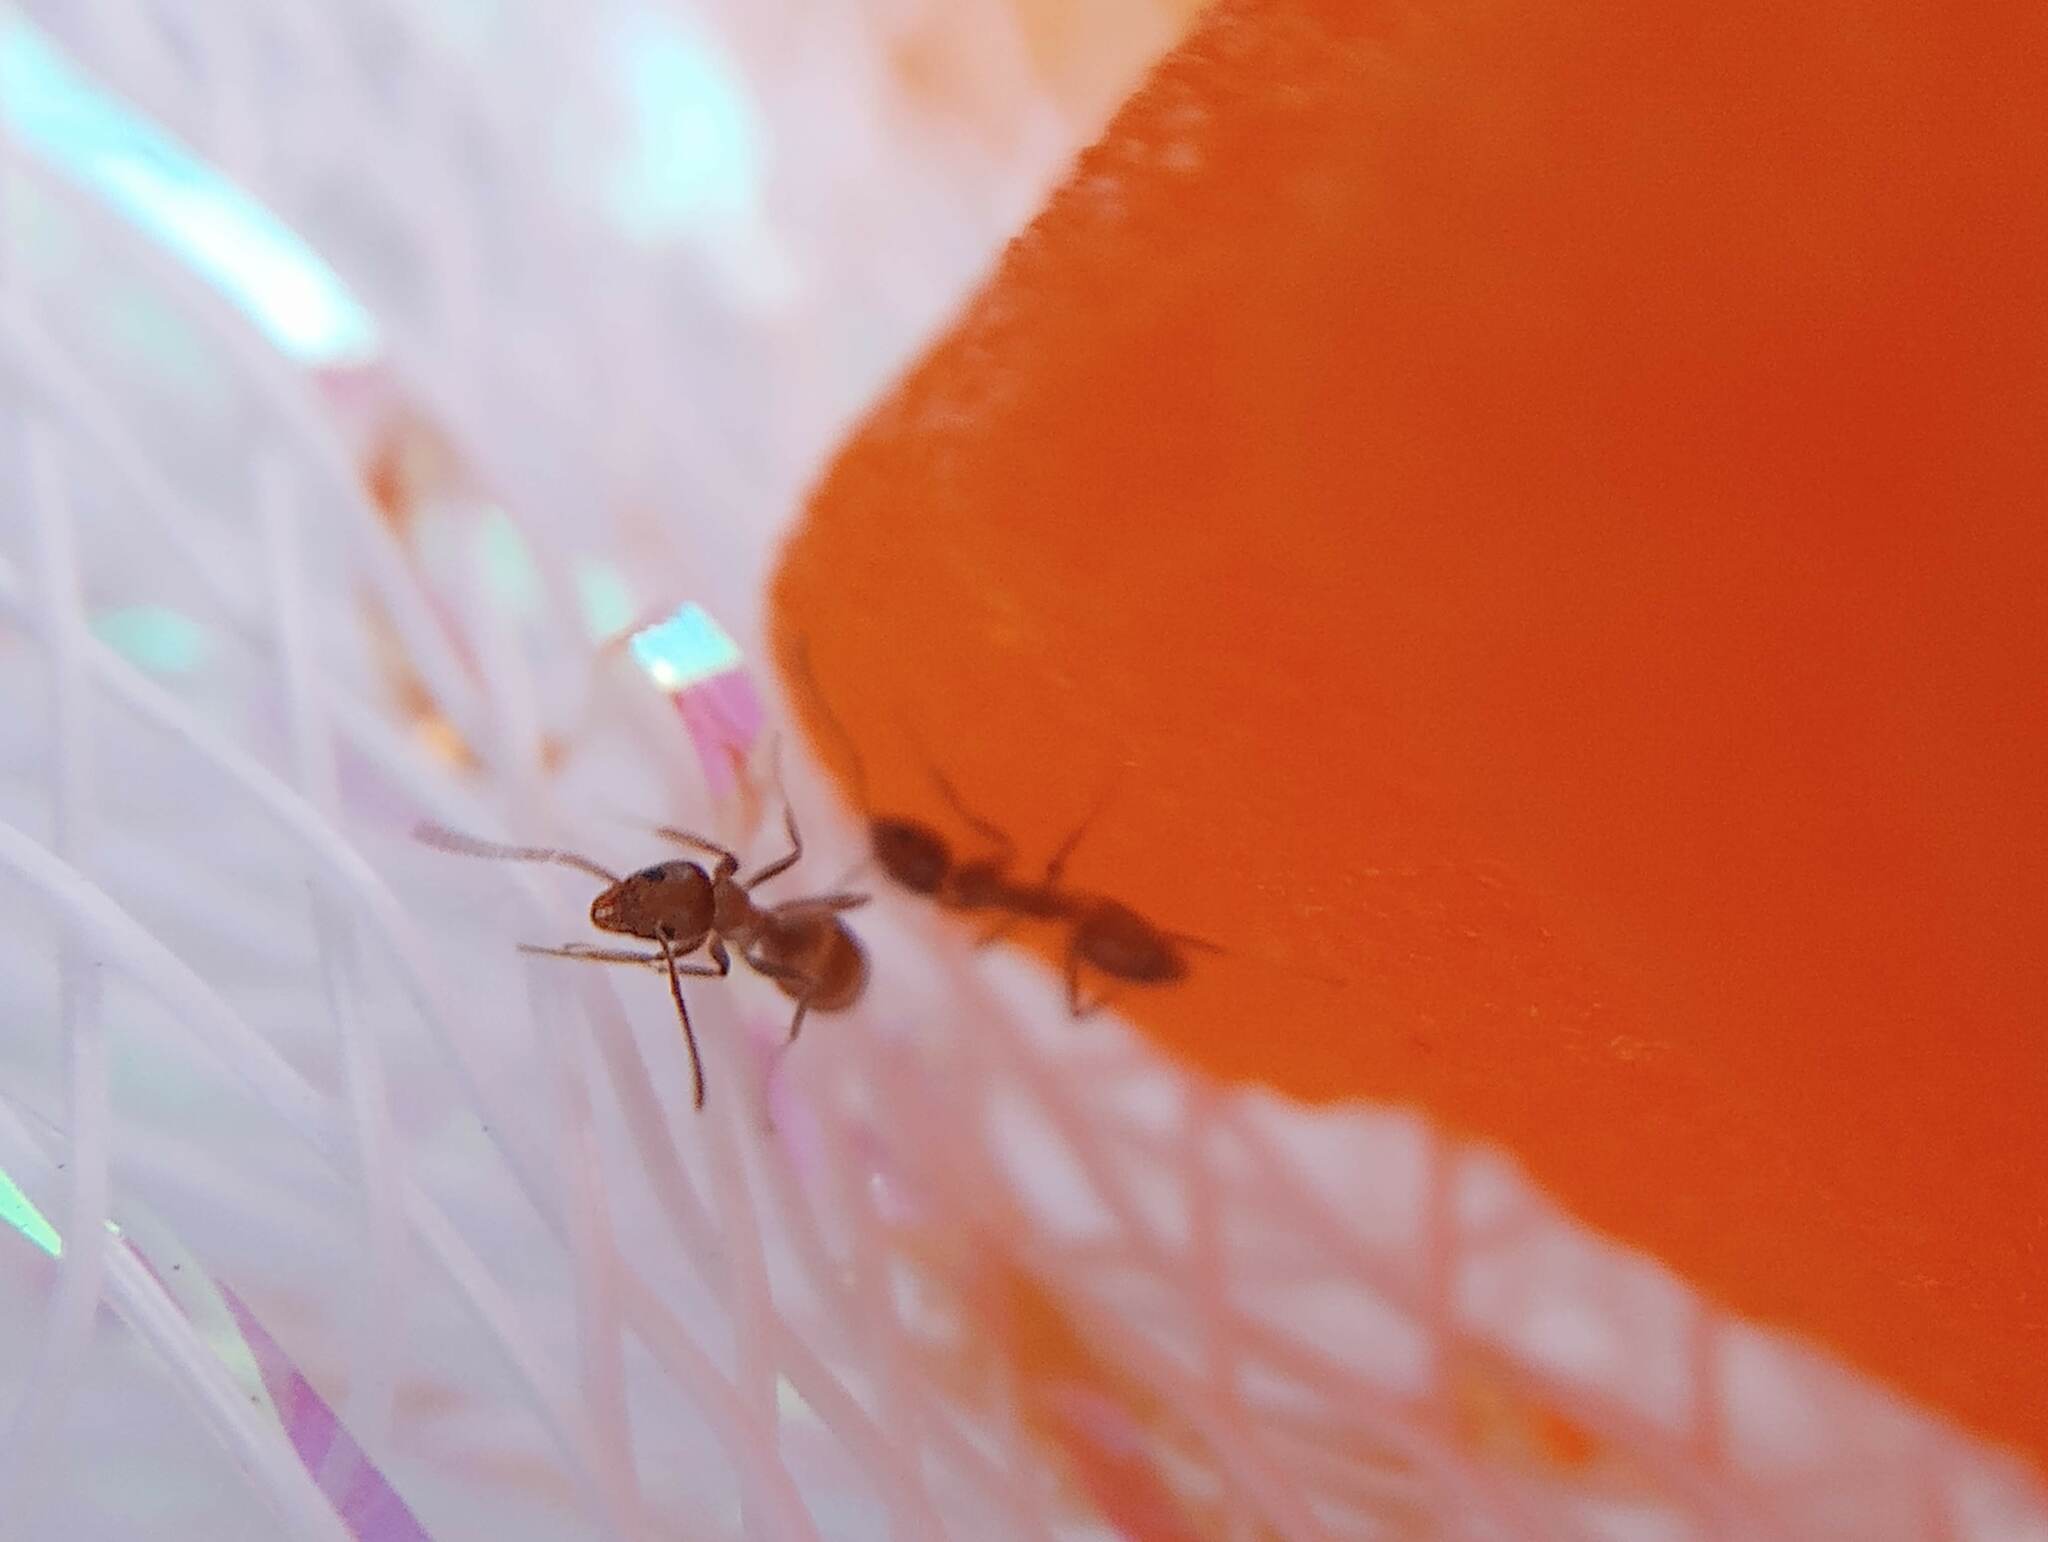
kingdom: Animalia
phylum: Arthropoda
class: Insecta
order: Hymenoptera
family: Formicidae
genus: Linepithema
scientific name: Linepithema humile
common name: Argentine ant
